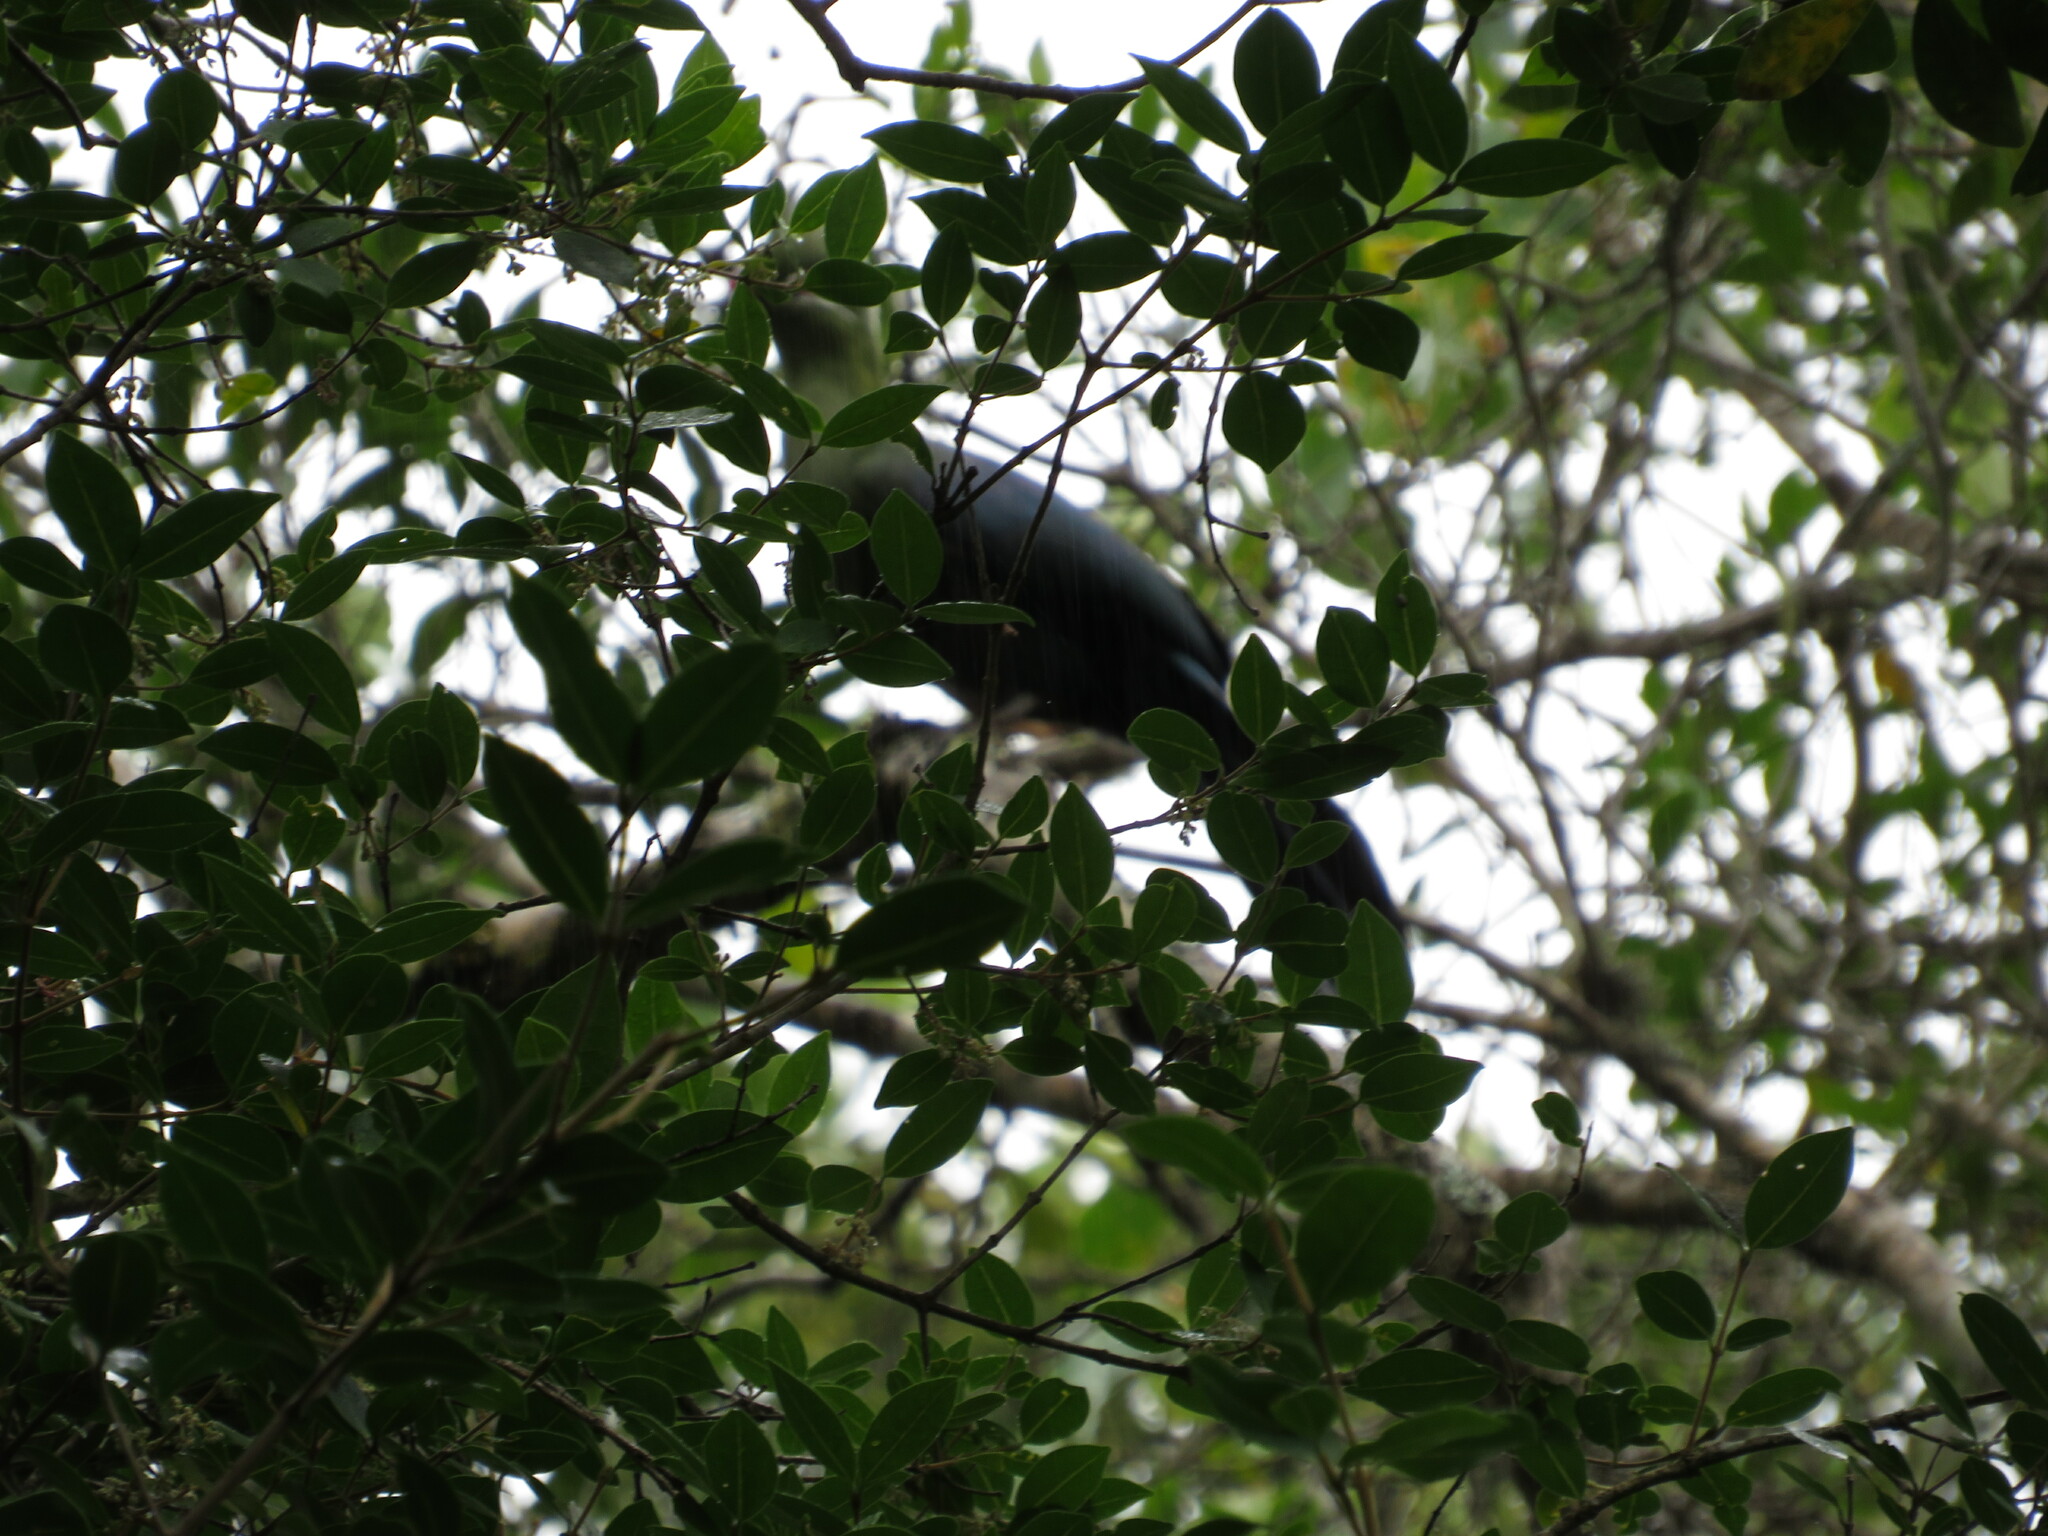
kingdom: Animalia
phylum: Chordata
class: Aves
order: Musophagiformes
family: Musophagidae
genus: Tauraco
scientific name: Tauraco corythaix
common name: Knysna turaco
